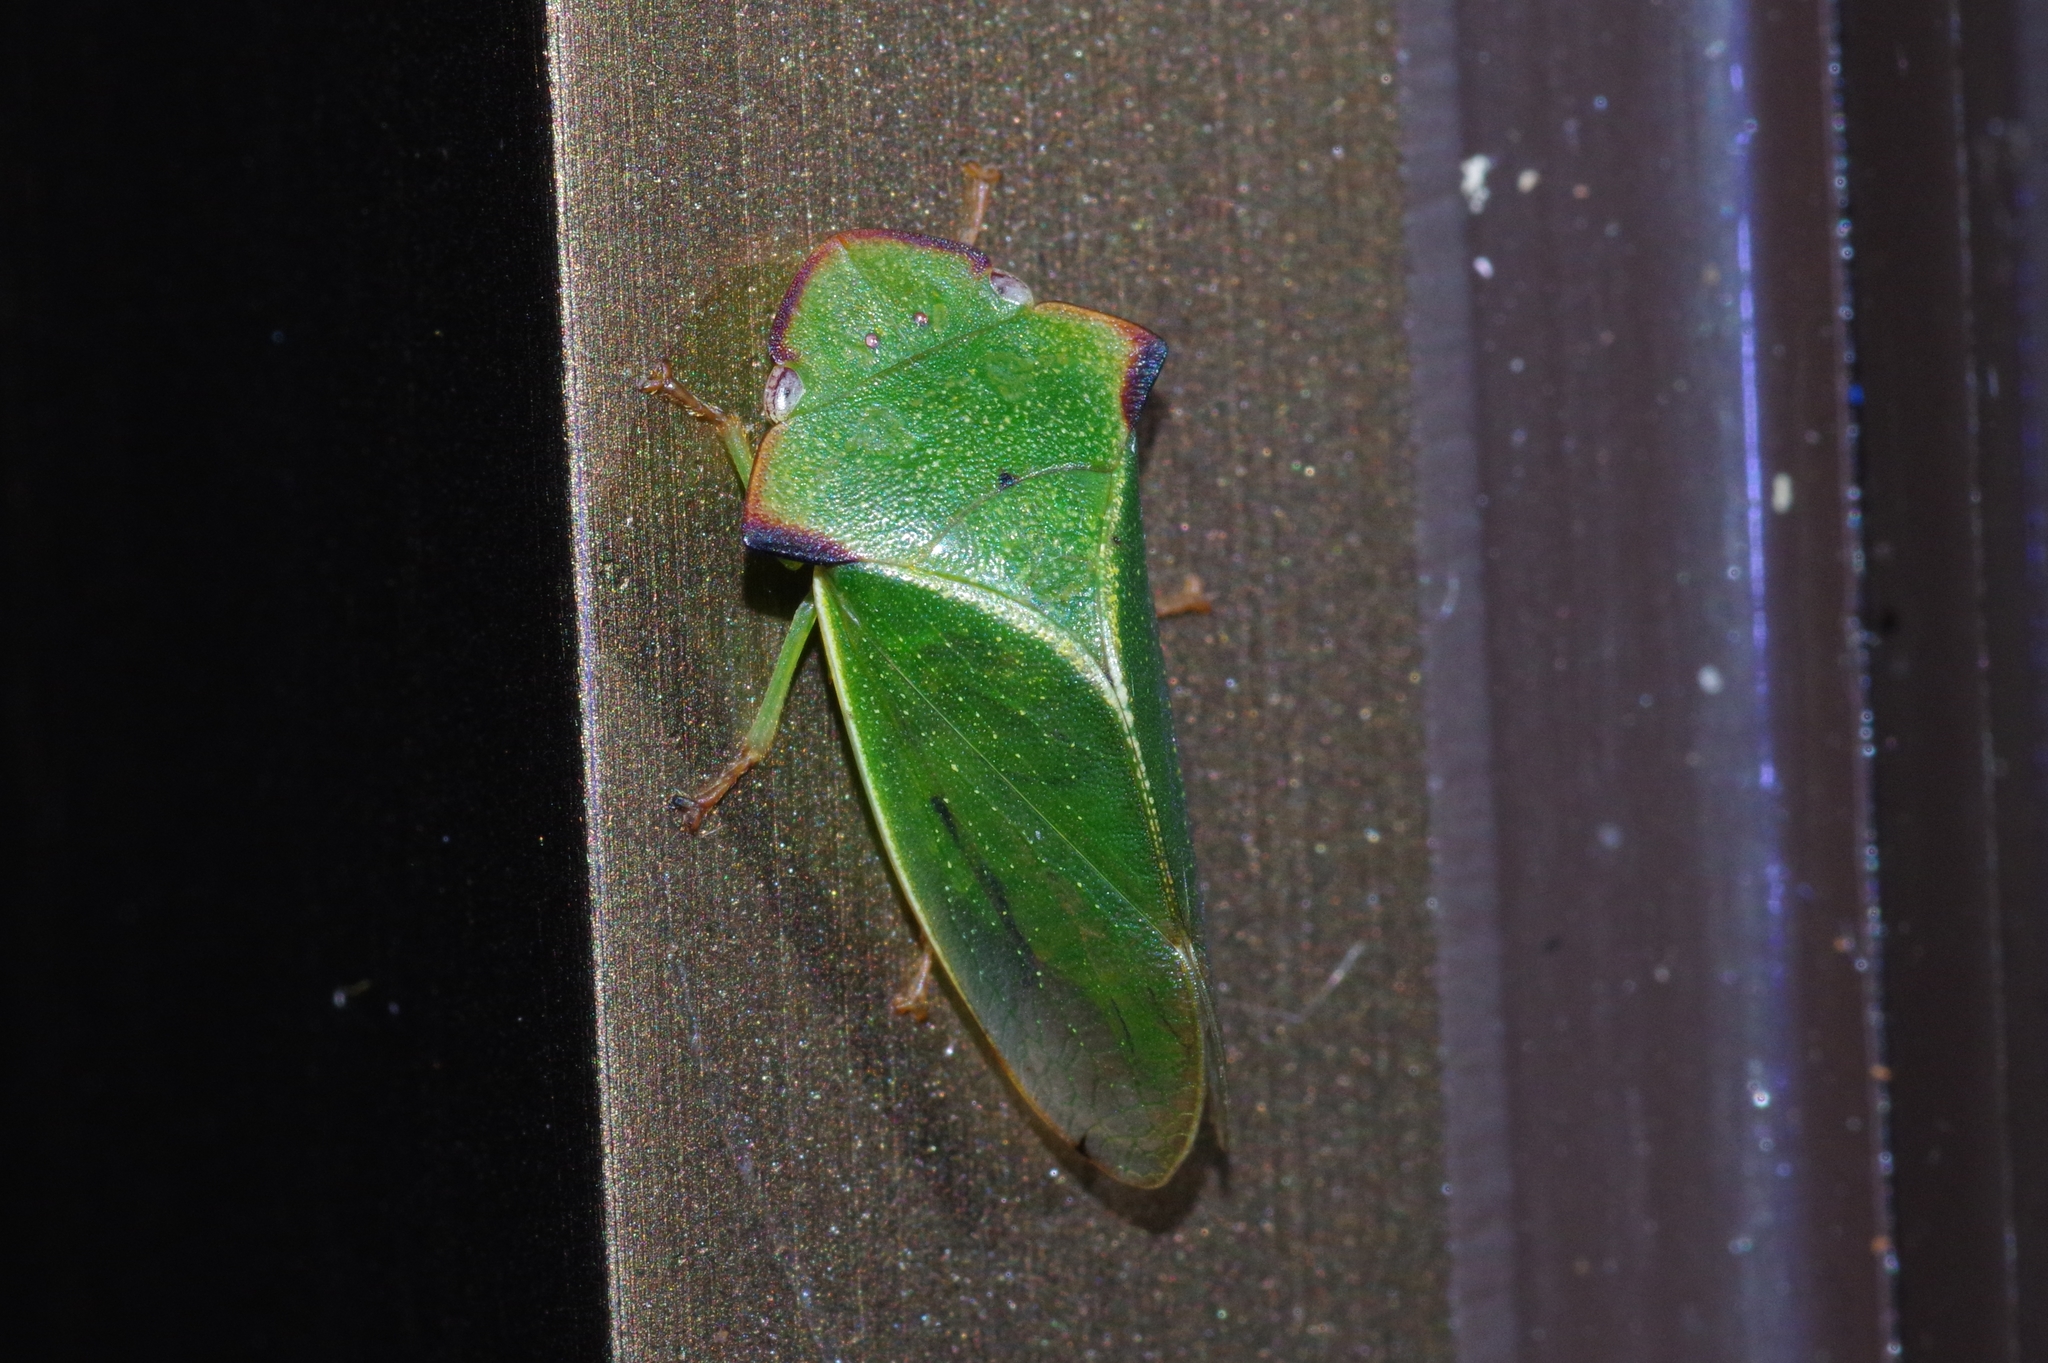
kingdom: Animalia
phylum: Arthropoda
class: Insecta
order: Hemiptera
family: Cicadellidae
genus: Tituria
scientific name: Tituria angulata
